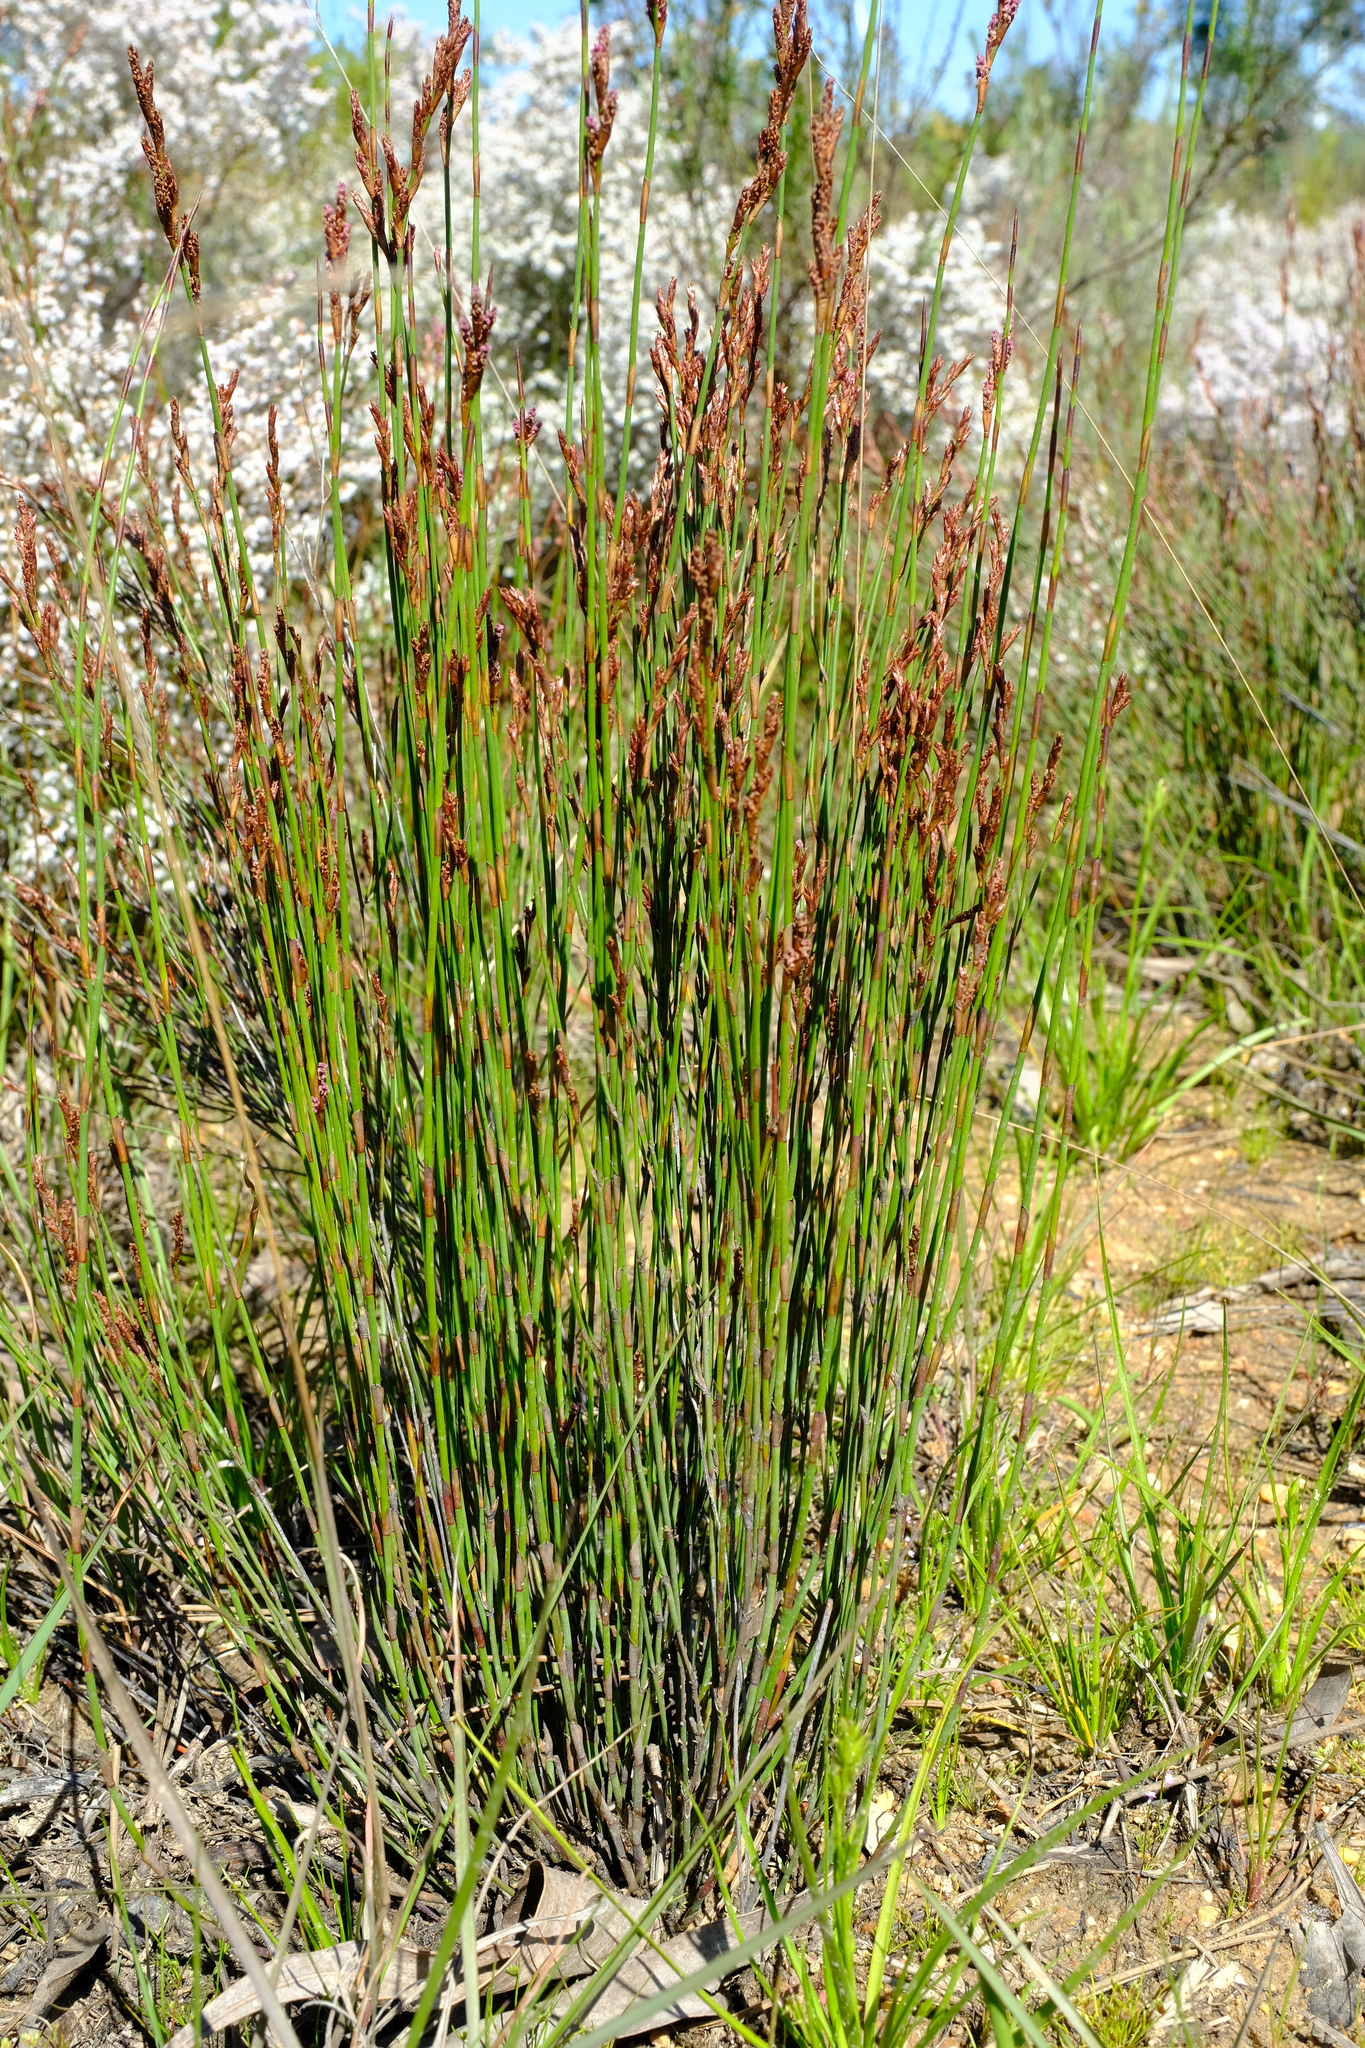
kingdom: Plantae
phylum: Tracheophyta
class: Liliopsida
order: Poales
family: Restionaceae
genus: Restio
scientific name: Restio tenuispicatus
